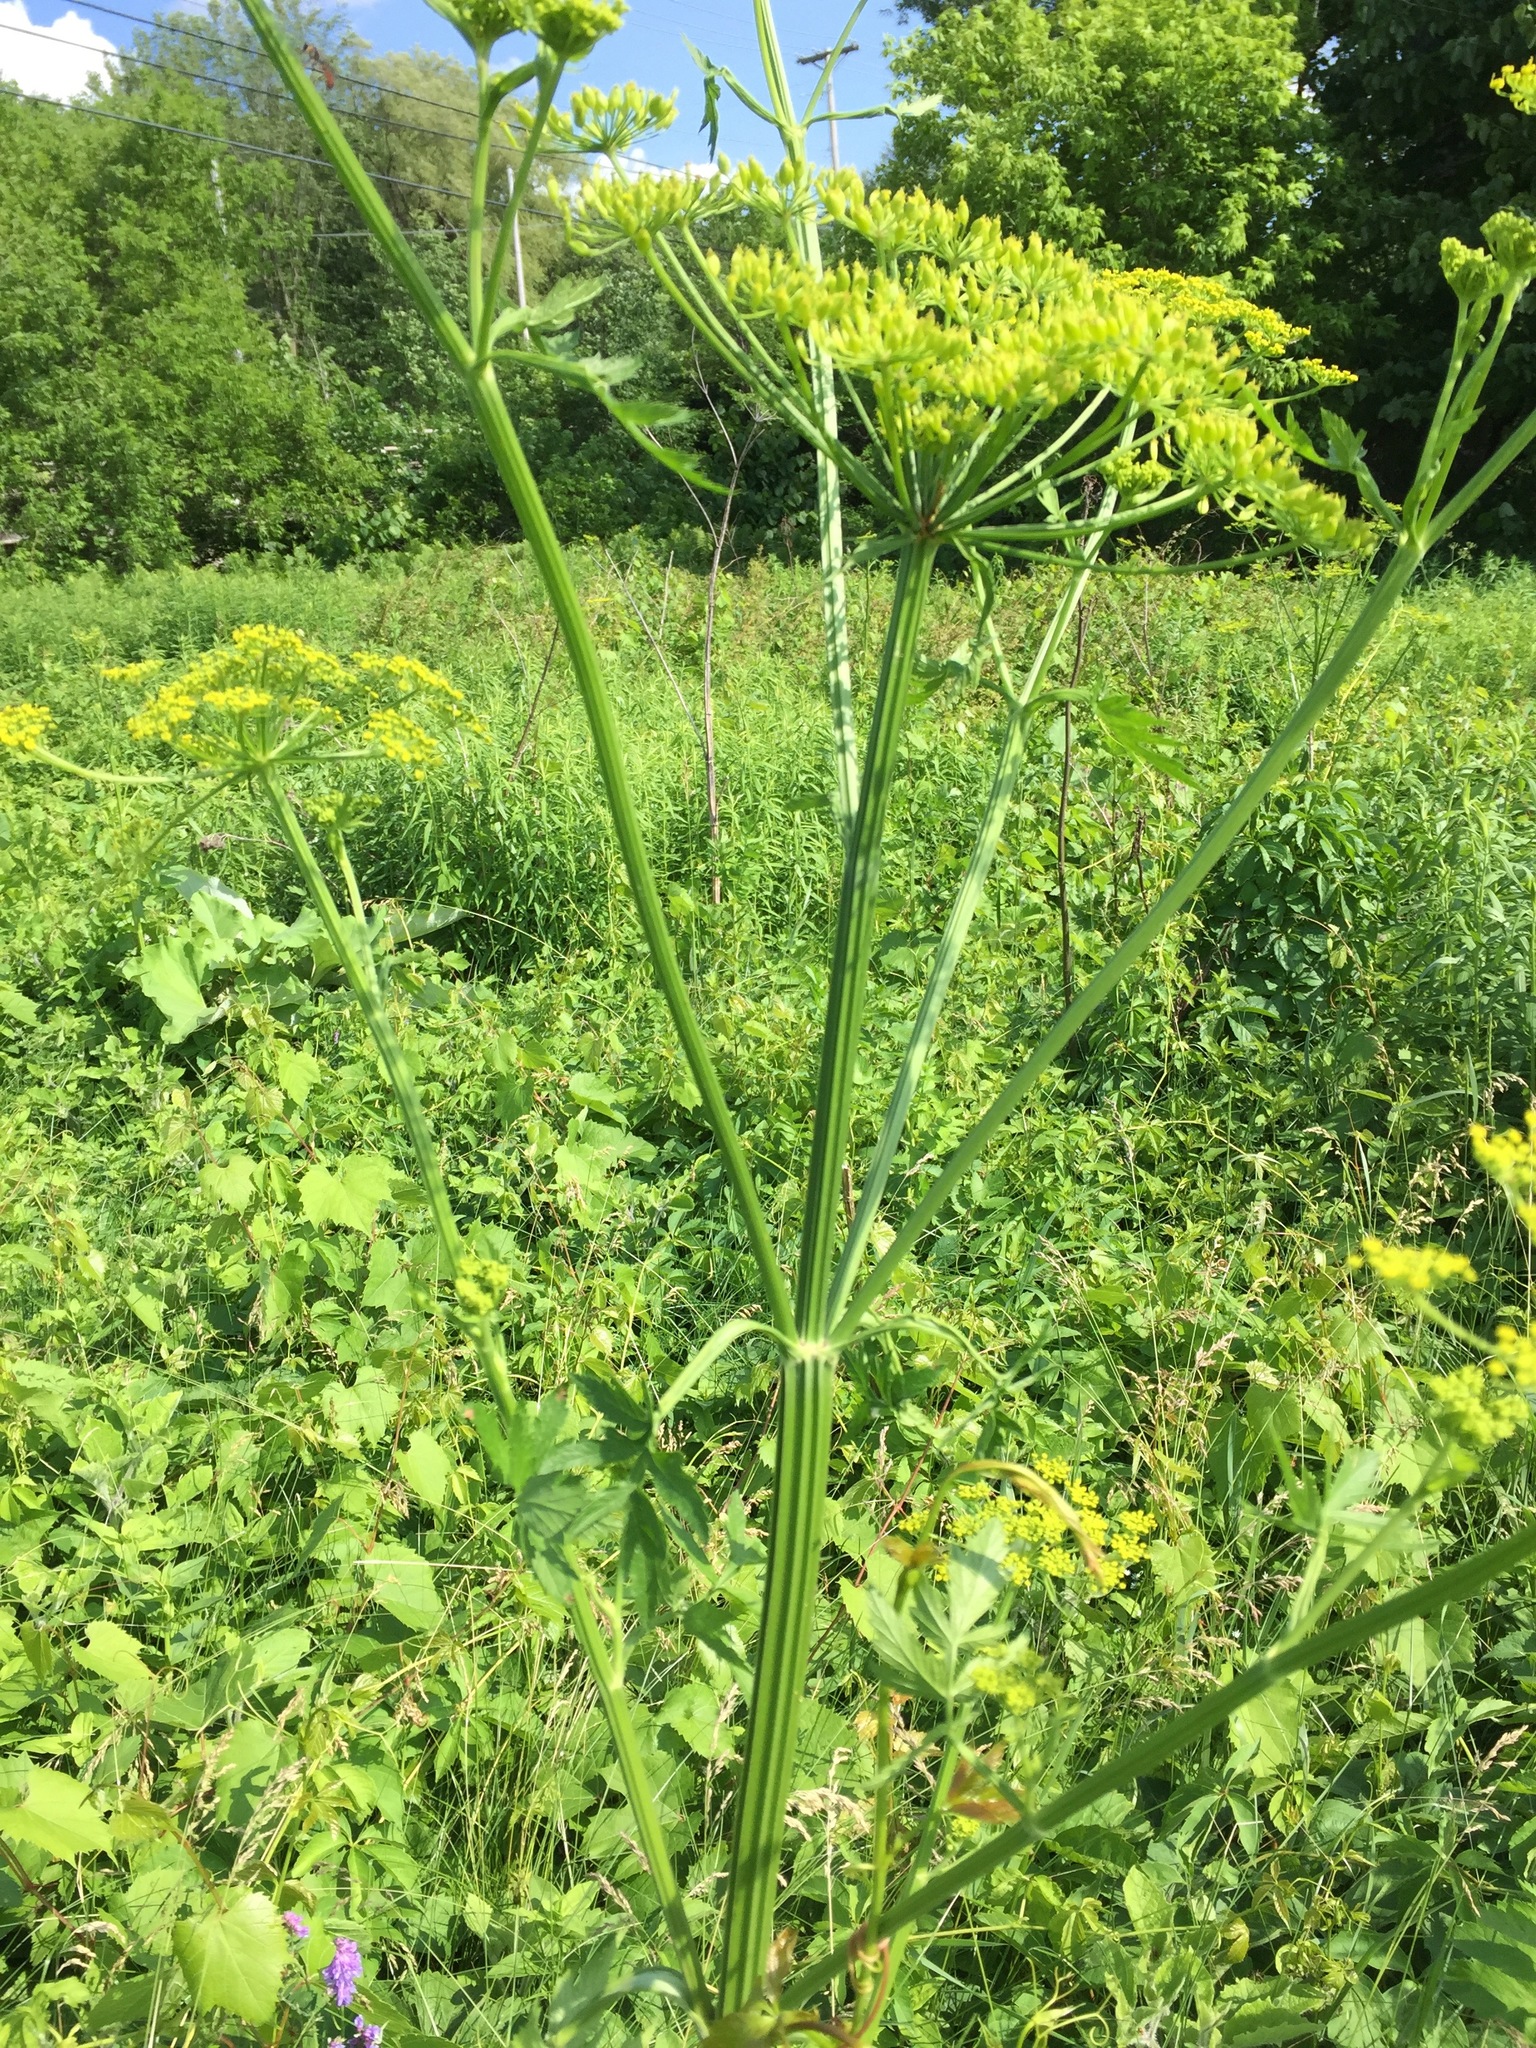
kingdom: Plantae
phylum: Tracheophyta
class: Magnoliopsida
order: Apiales
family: Apiaceae
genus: Pastinaca
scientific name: Pastinaca sativa
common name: Wild parsnip
